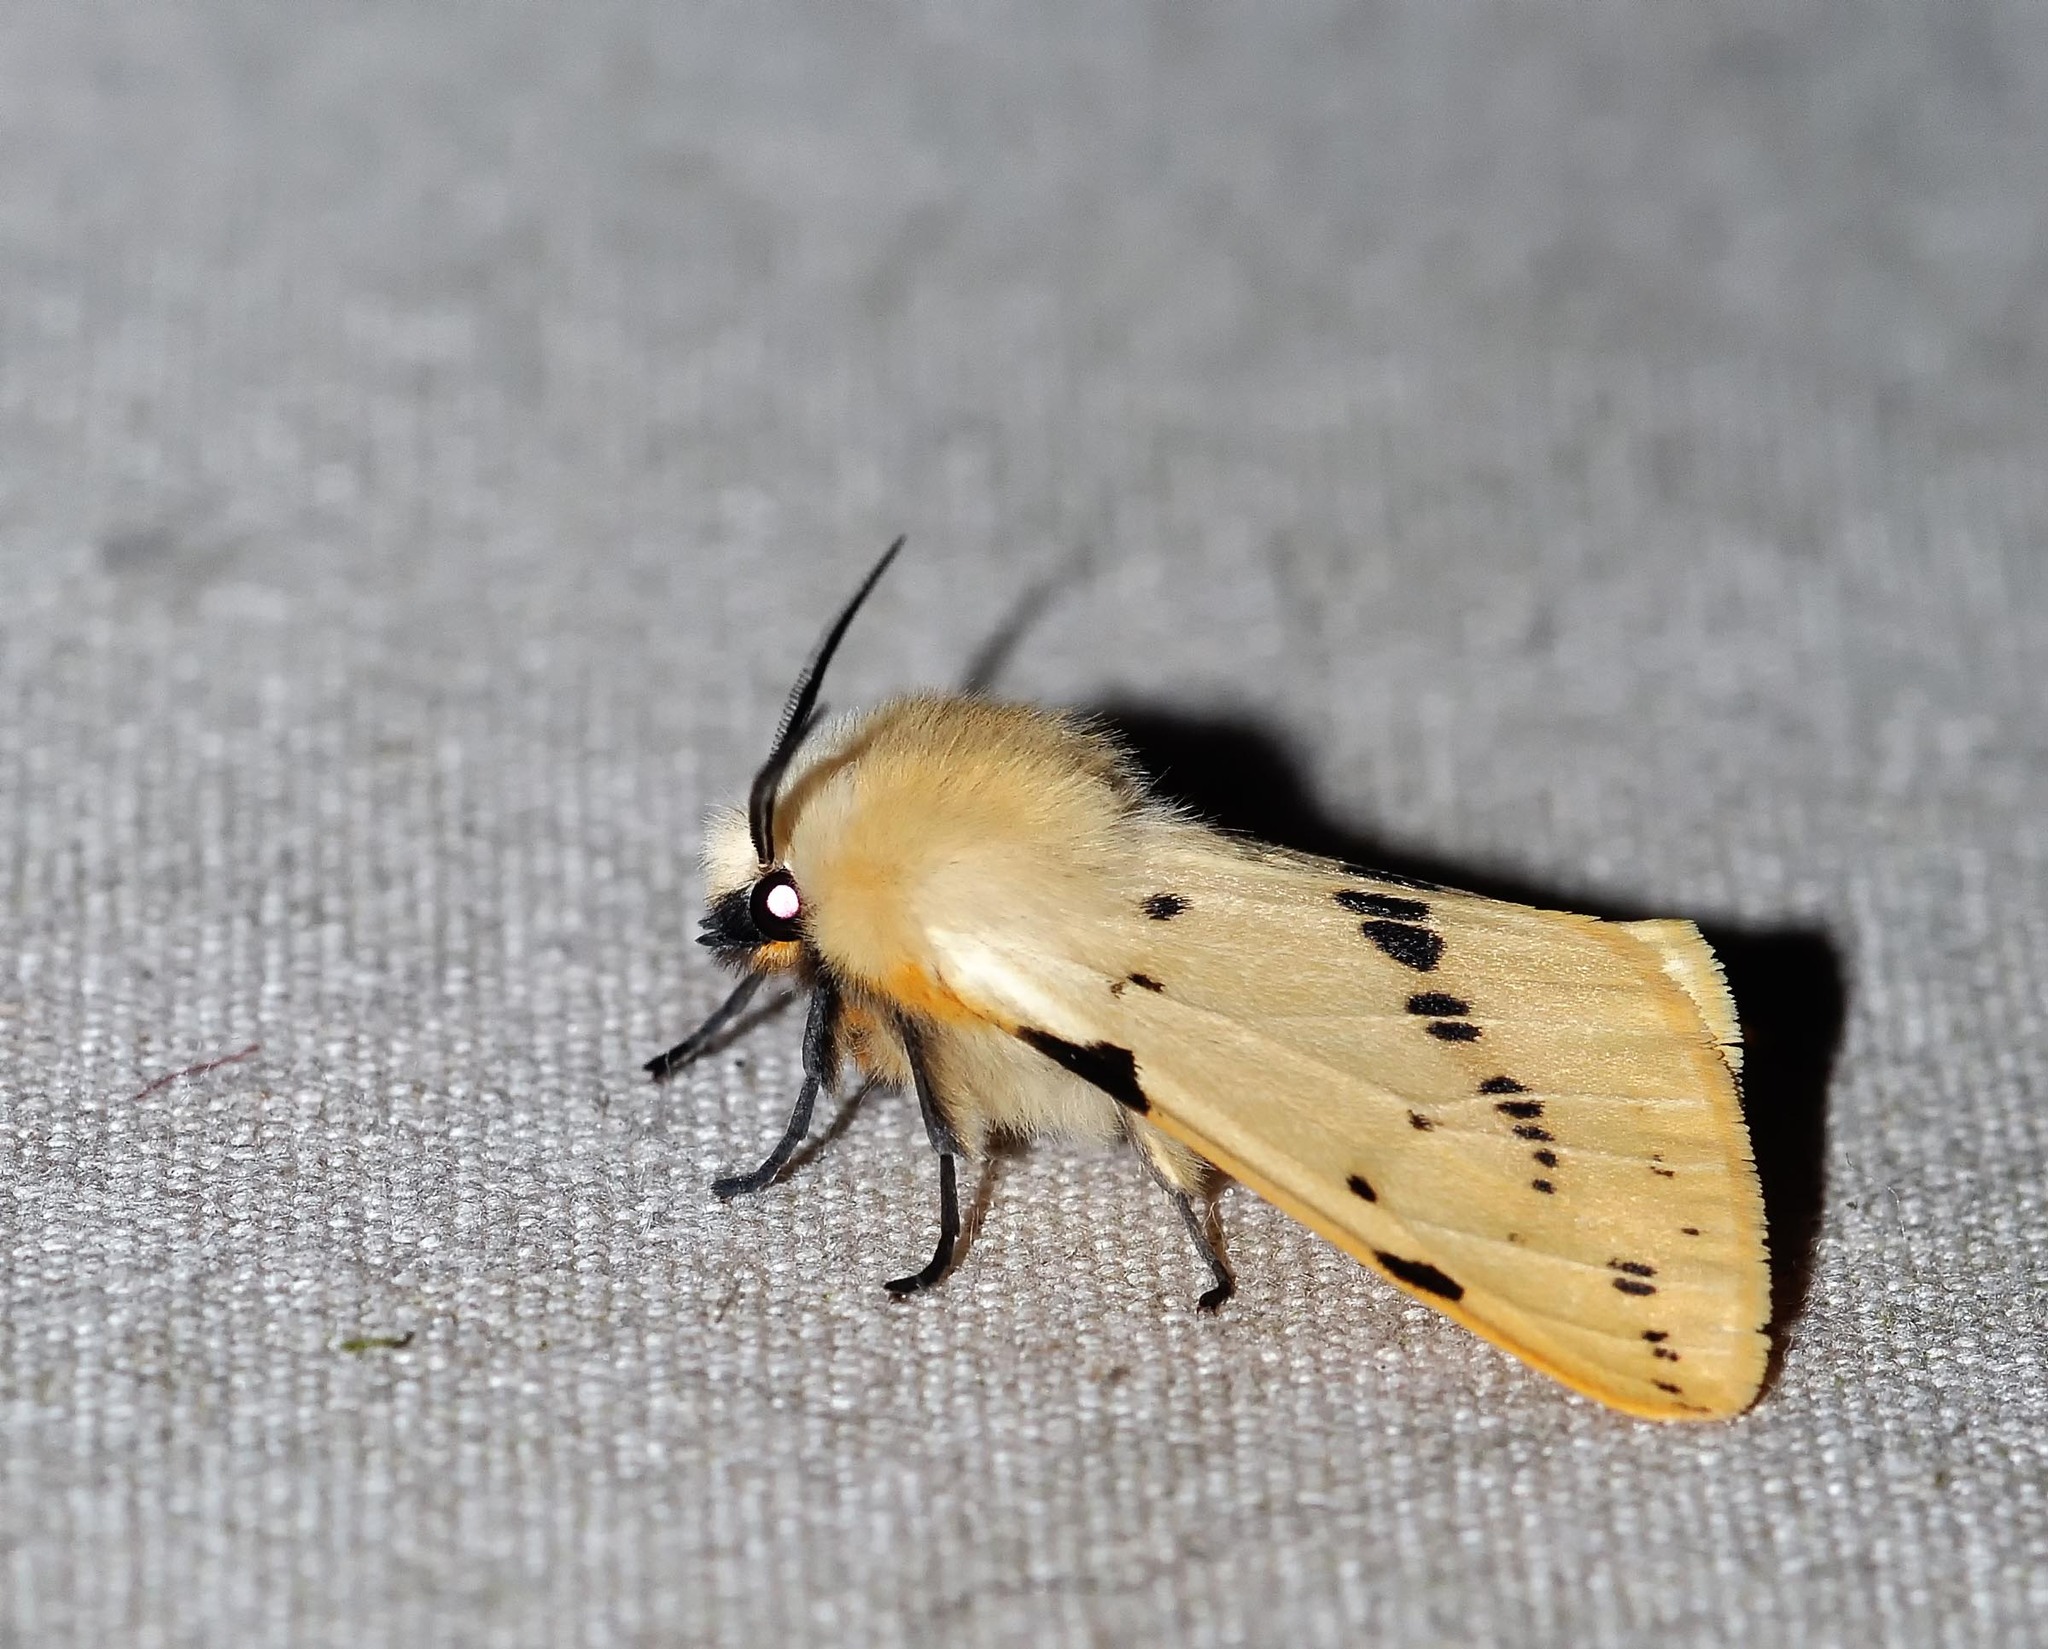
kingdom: Animalia
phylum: Arthropoda
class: Insecta
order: Lepidoptera
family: Erebidae
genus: Spilarctia
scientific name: Spilarctia lutea
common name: Buff ermine
